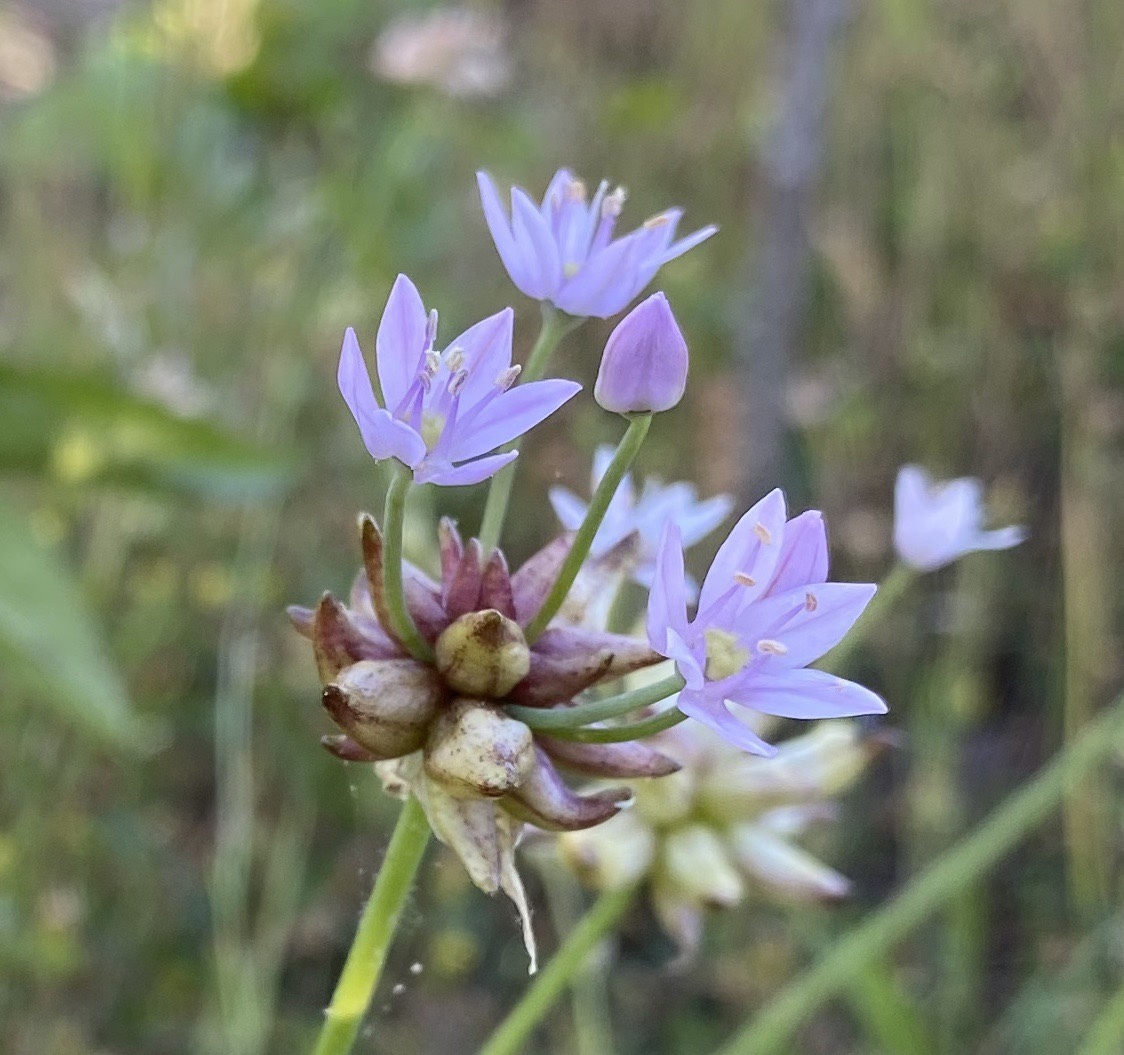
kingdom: Plantae
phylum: Tracheophyta
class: Liliopsida
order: Asparagales
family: Amaryllidaceae
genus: Allium
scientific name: Allium canadense
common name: Meadow garlic
